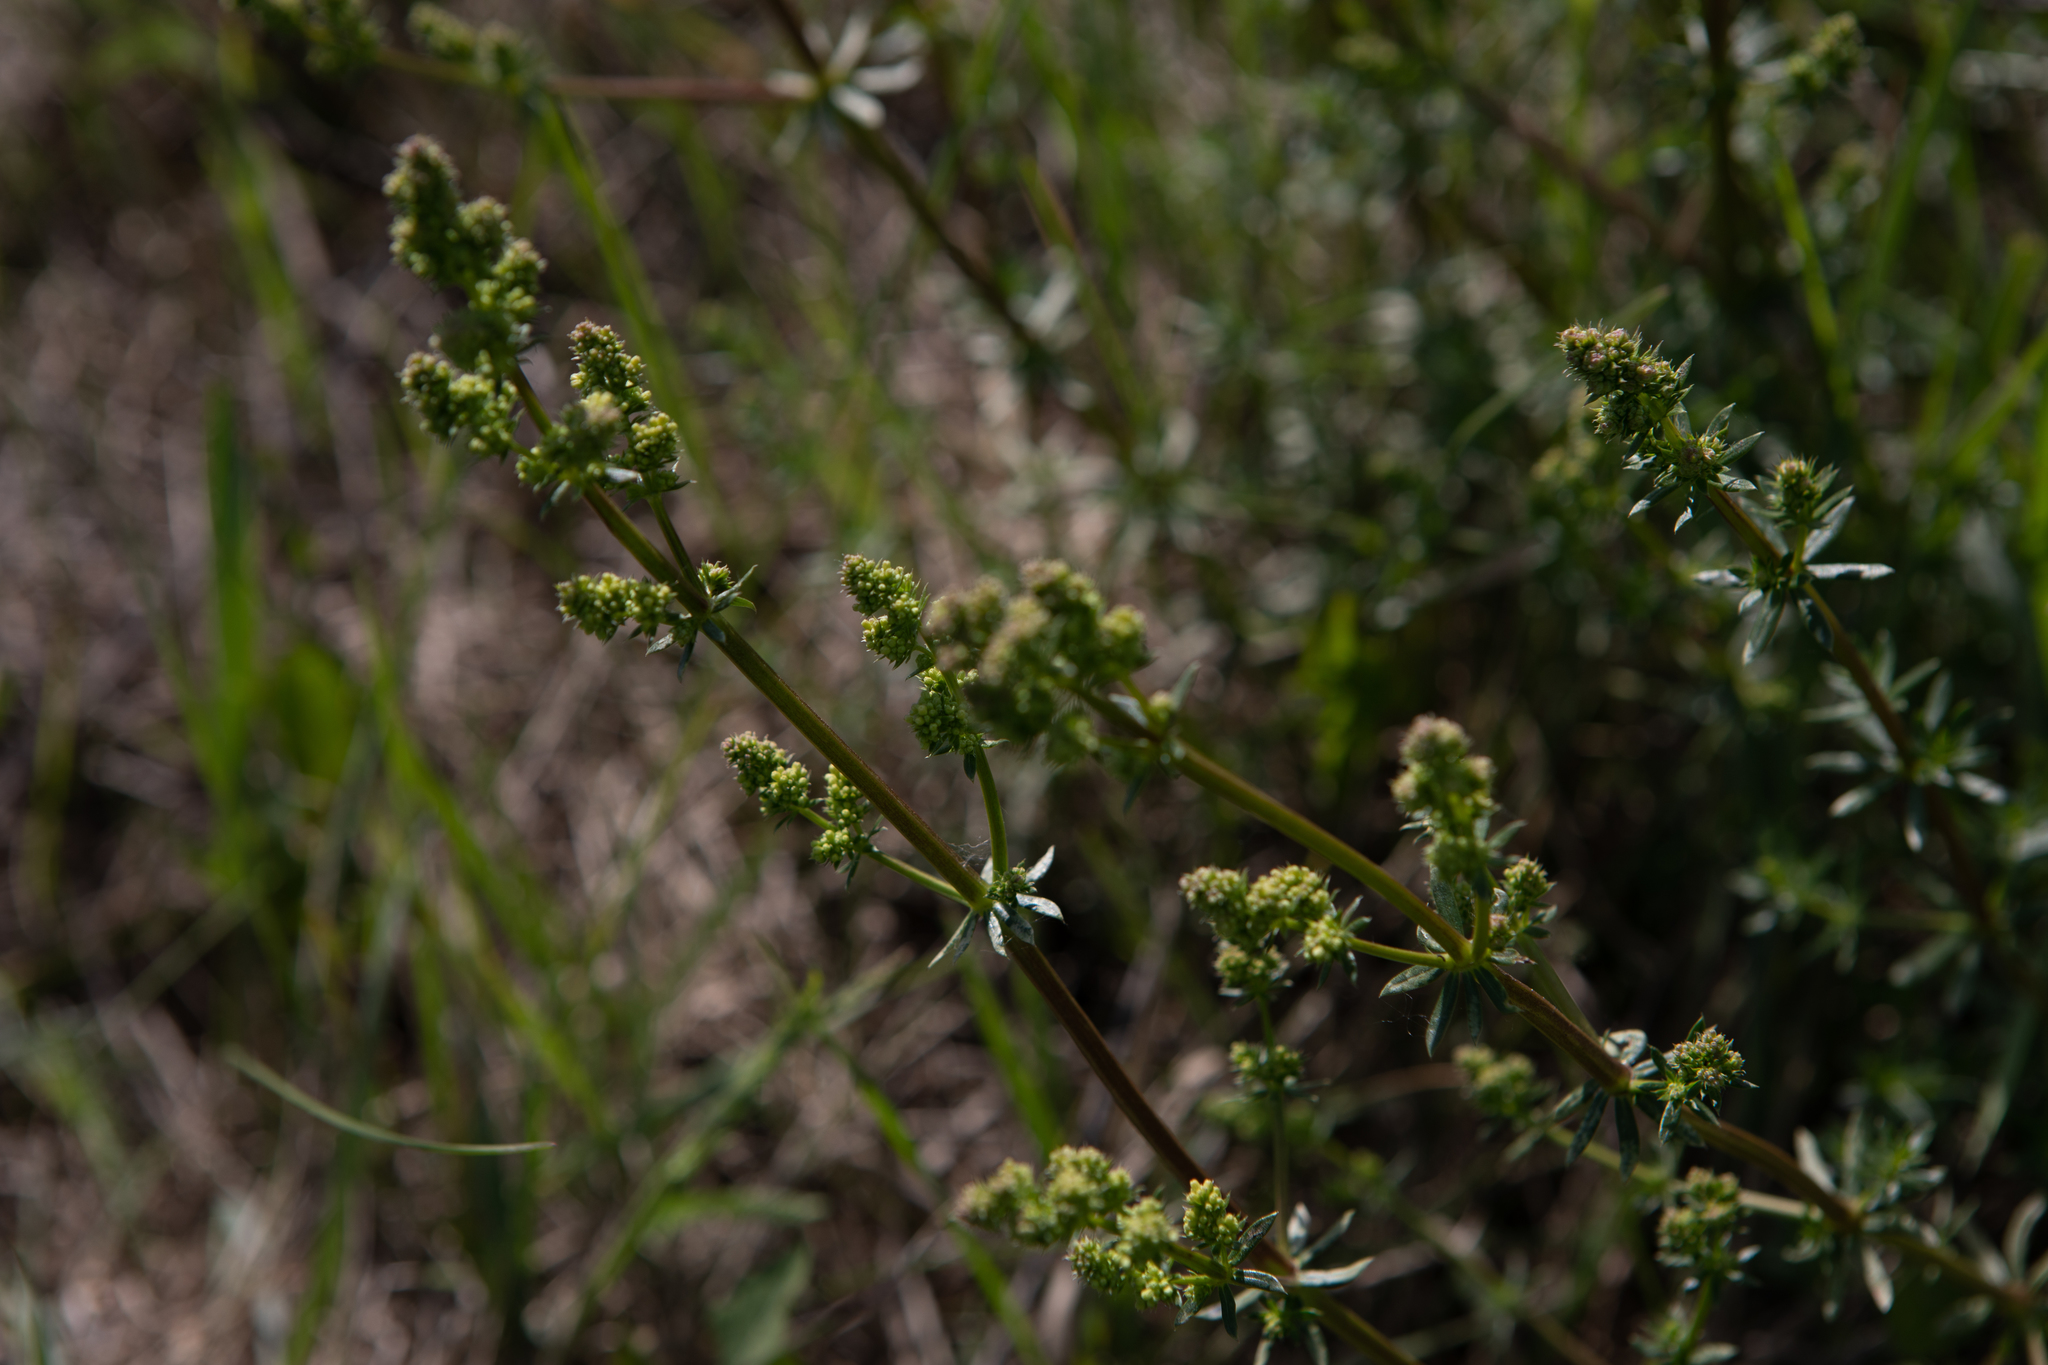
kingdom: Plantae
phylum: Tracheophyta
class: Magnoliopsida
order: Gentianales
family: Rubiaceae
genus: Galium
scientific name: Galium mollugo
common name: Hedge bedstraw
